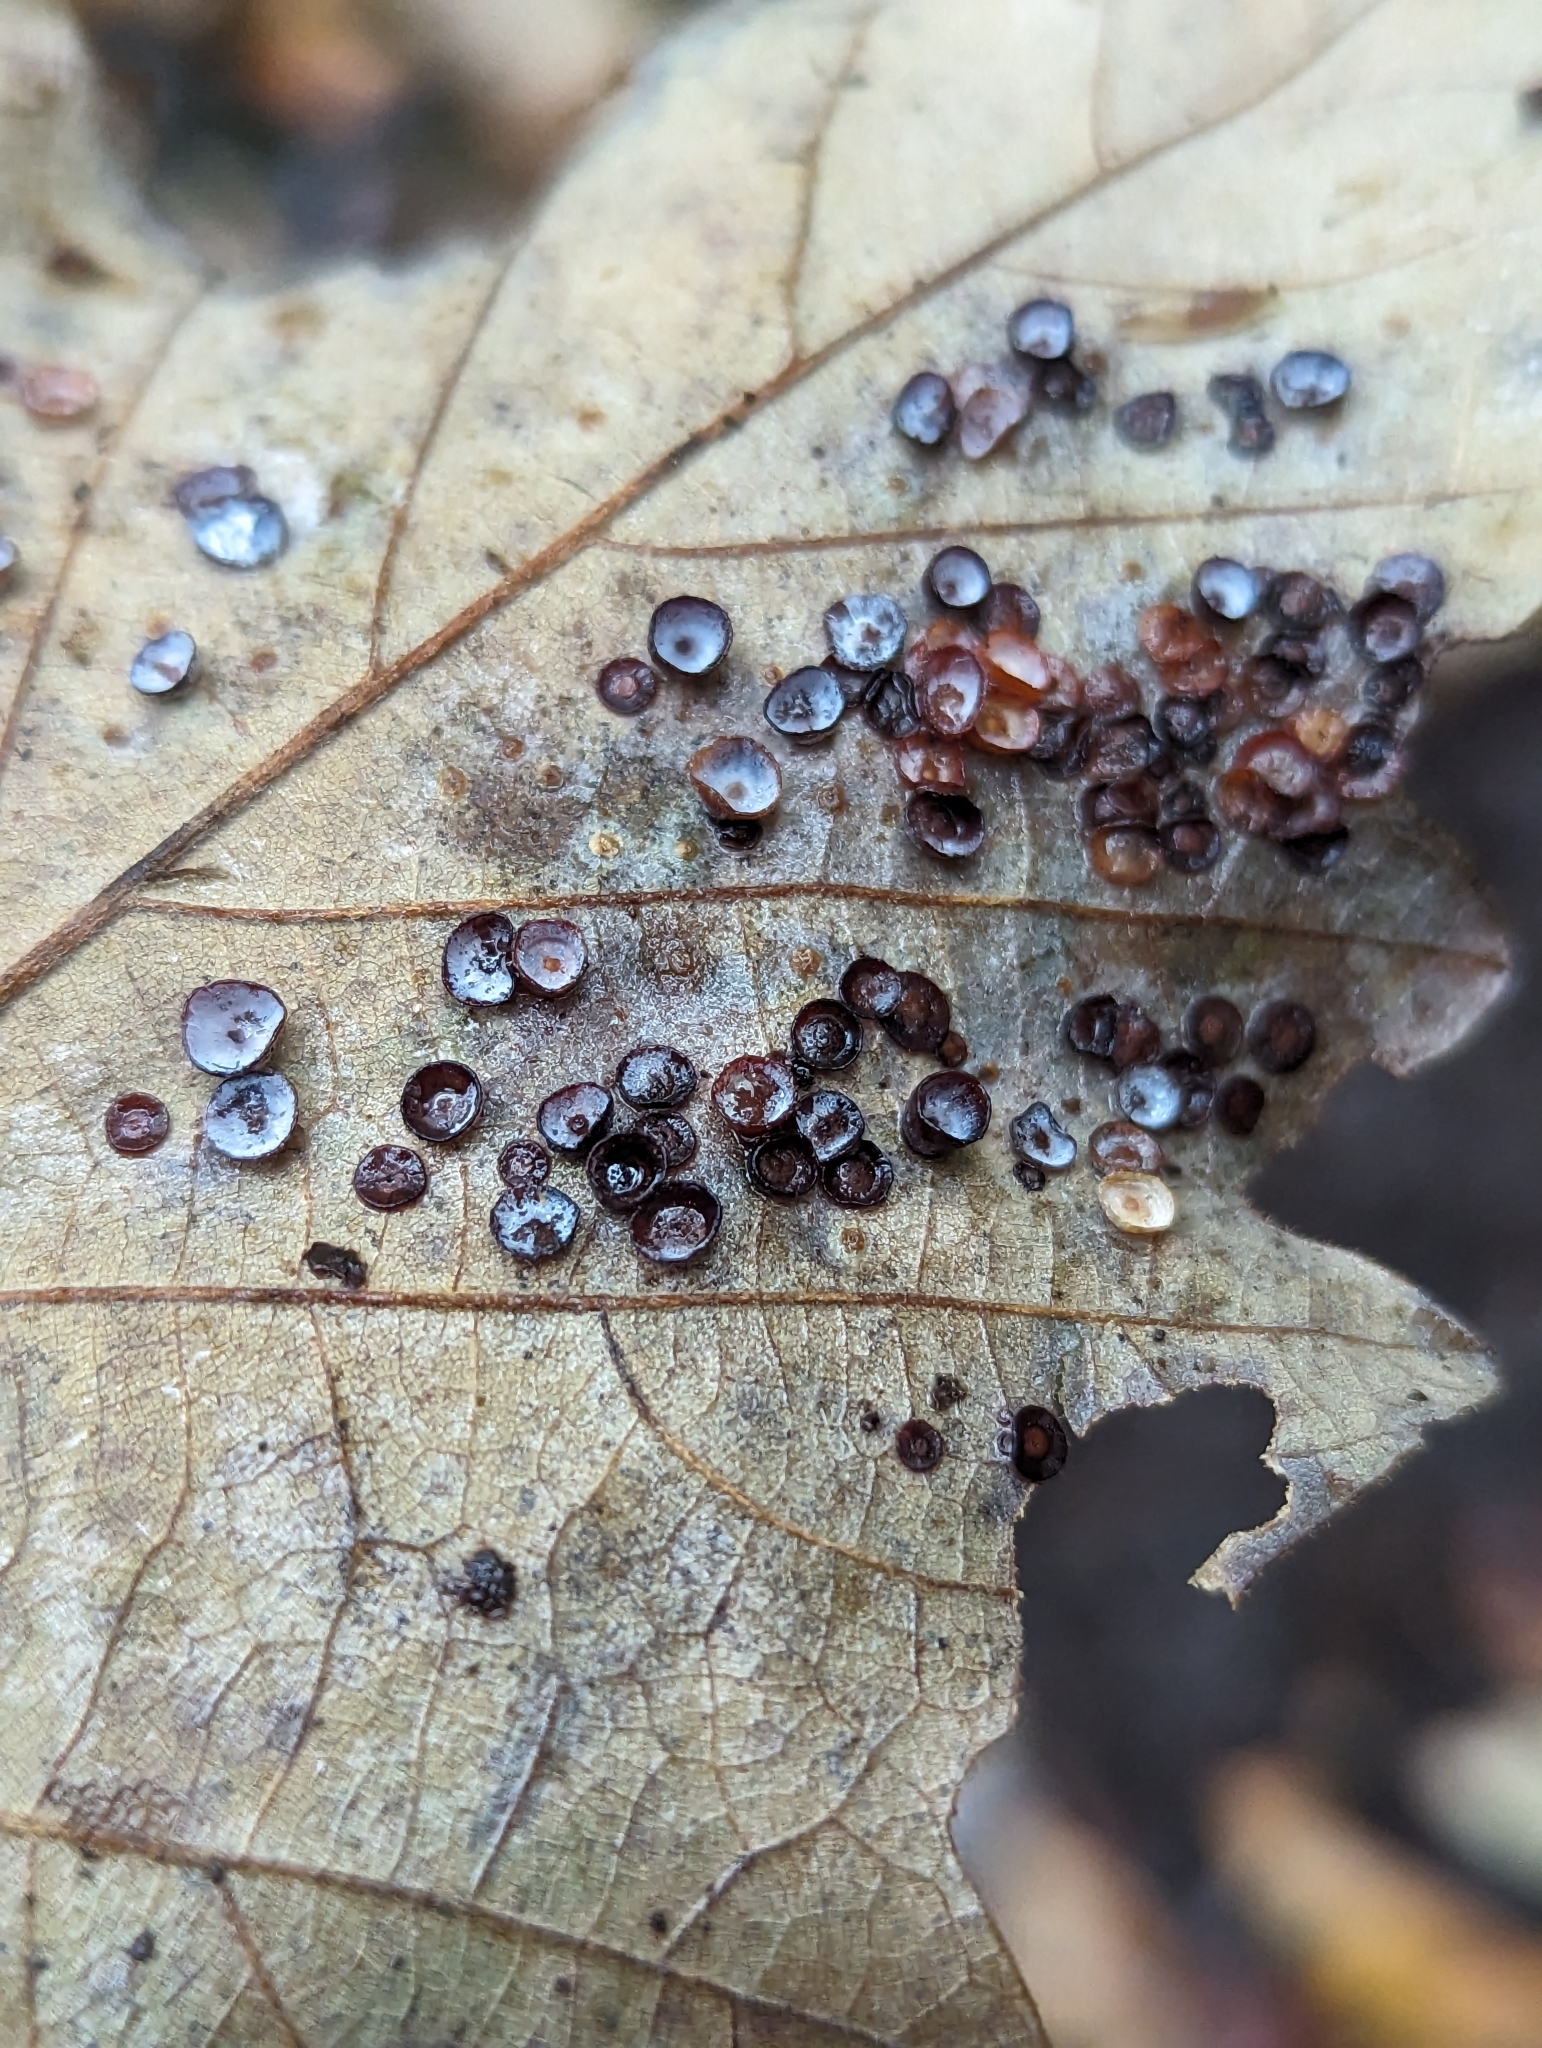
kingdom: Animalia
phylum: Arthropoda
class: Insecta
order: Hymenoptera
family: Cynipidae
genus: Phylloteras
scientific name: Phylloteras
